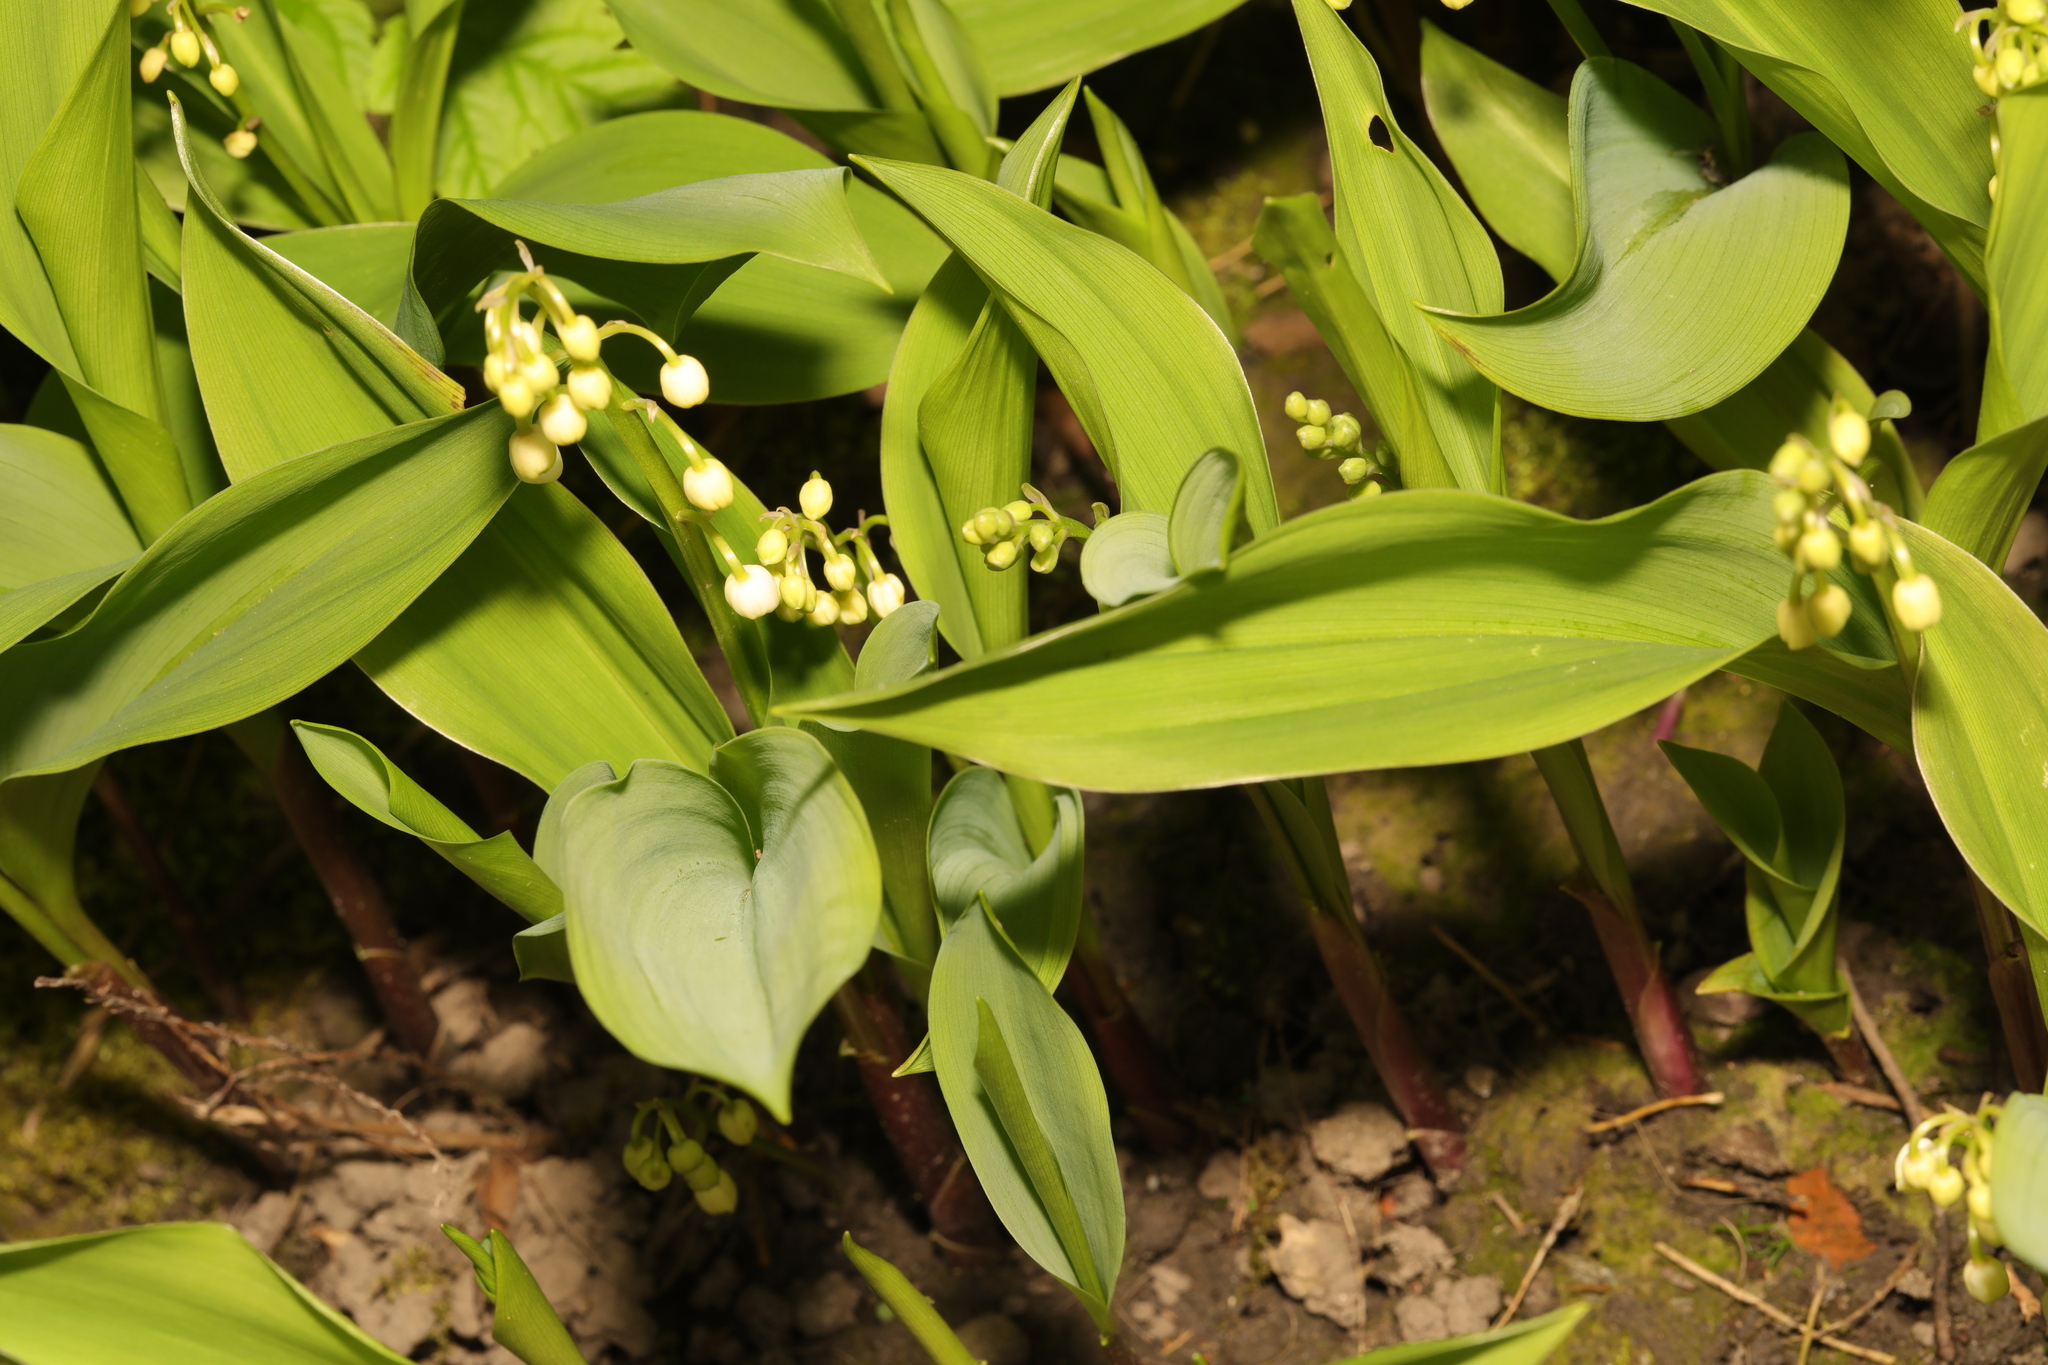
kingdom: Plantae
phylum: Tracheophyta
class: Liliopsida
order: Asparagales
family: Asparagaceae
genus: Convallaria
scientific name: Convallaria majalis
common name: Lily-of-the-valley
